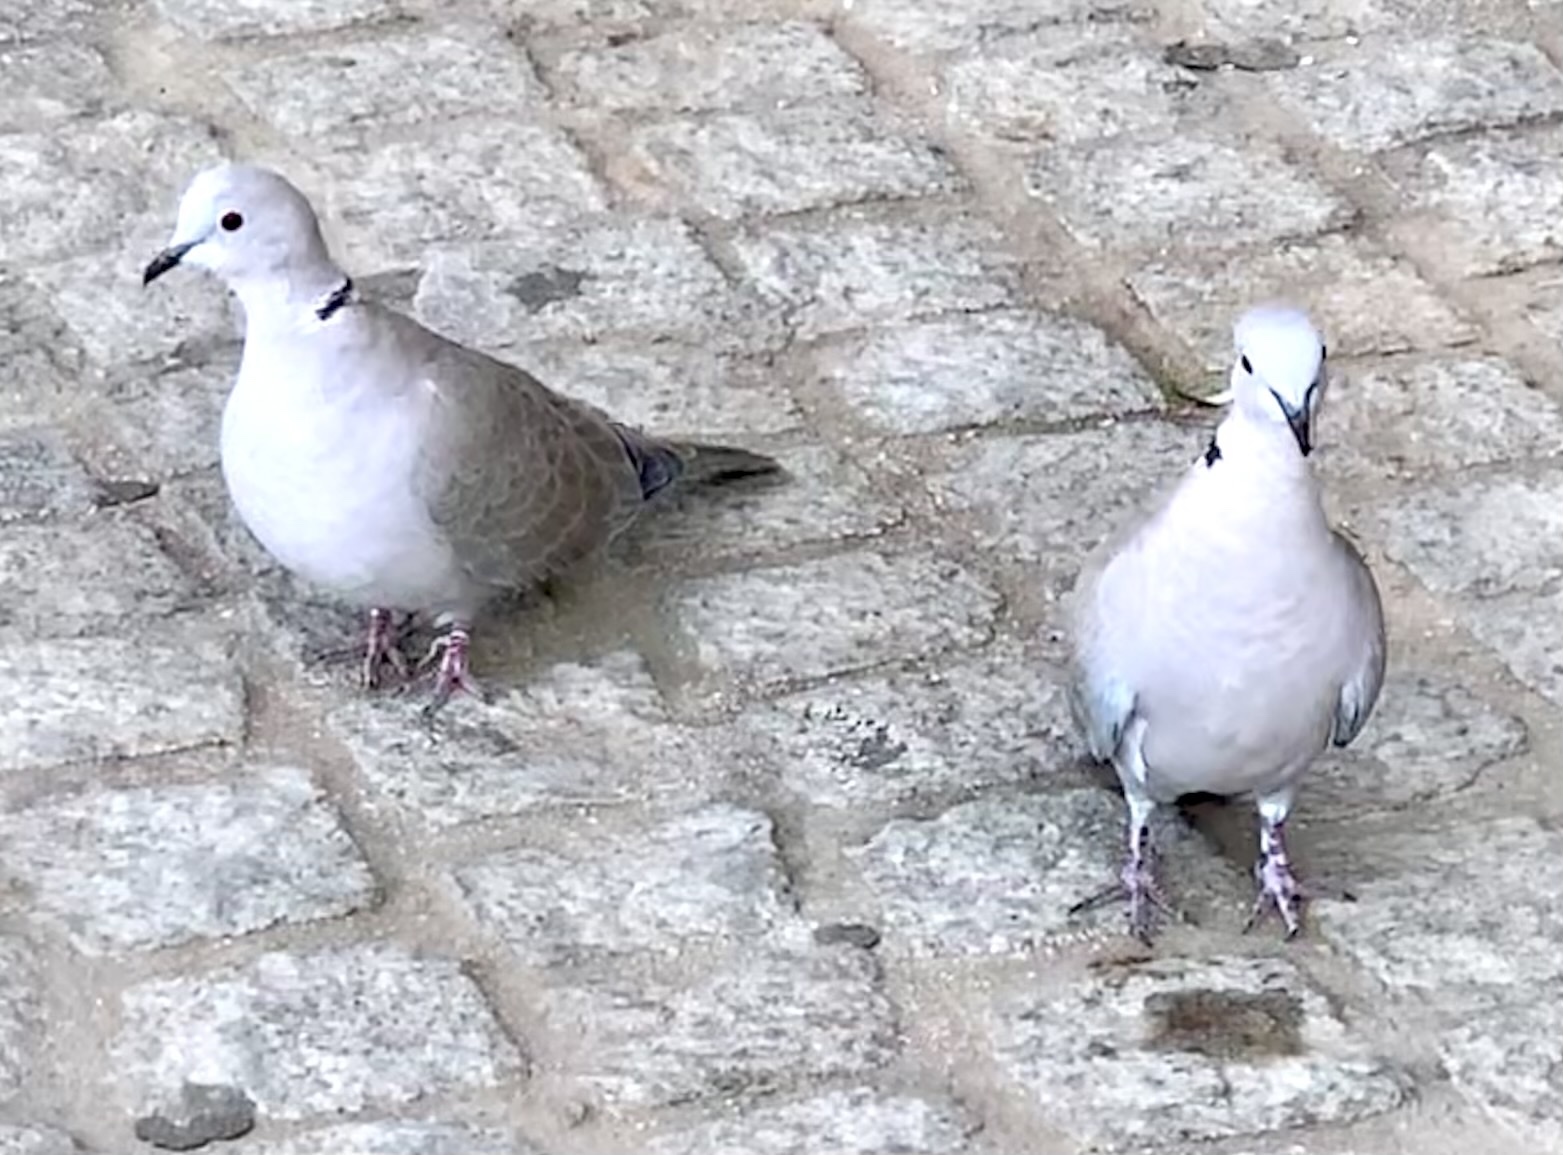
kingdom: Animalia
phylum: Chordata
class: Aves
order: Columbiformes
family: Columbidae
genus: Streptopelia
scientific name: Streptopelia decaocto
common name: Eurasian collared dove
